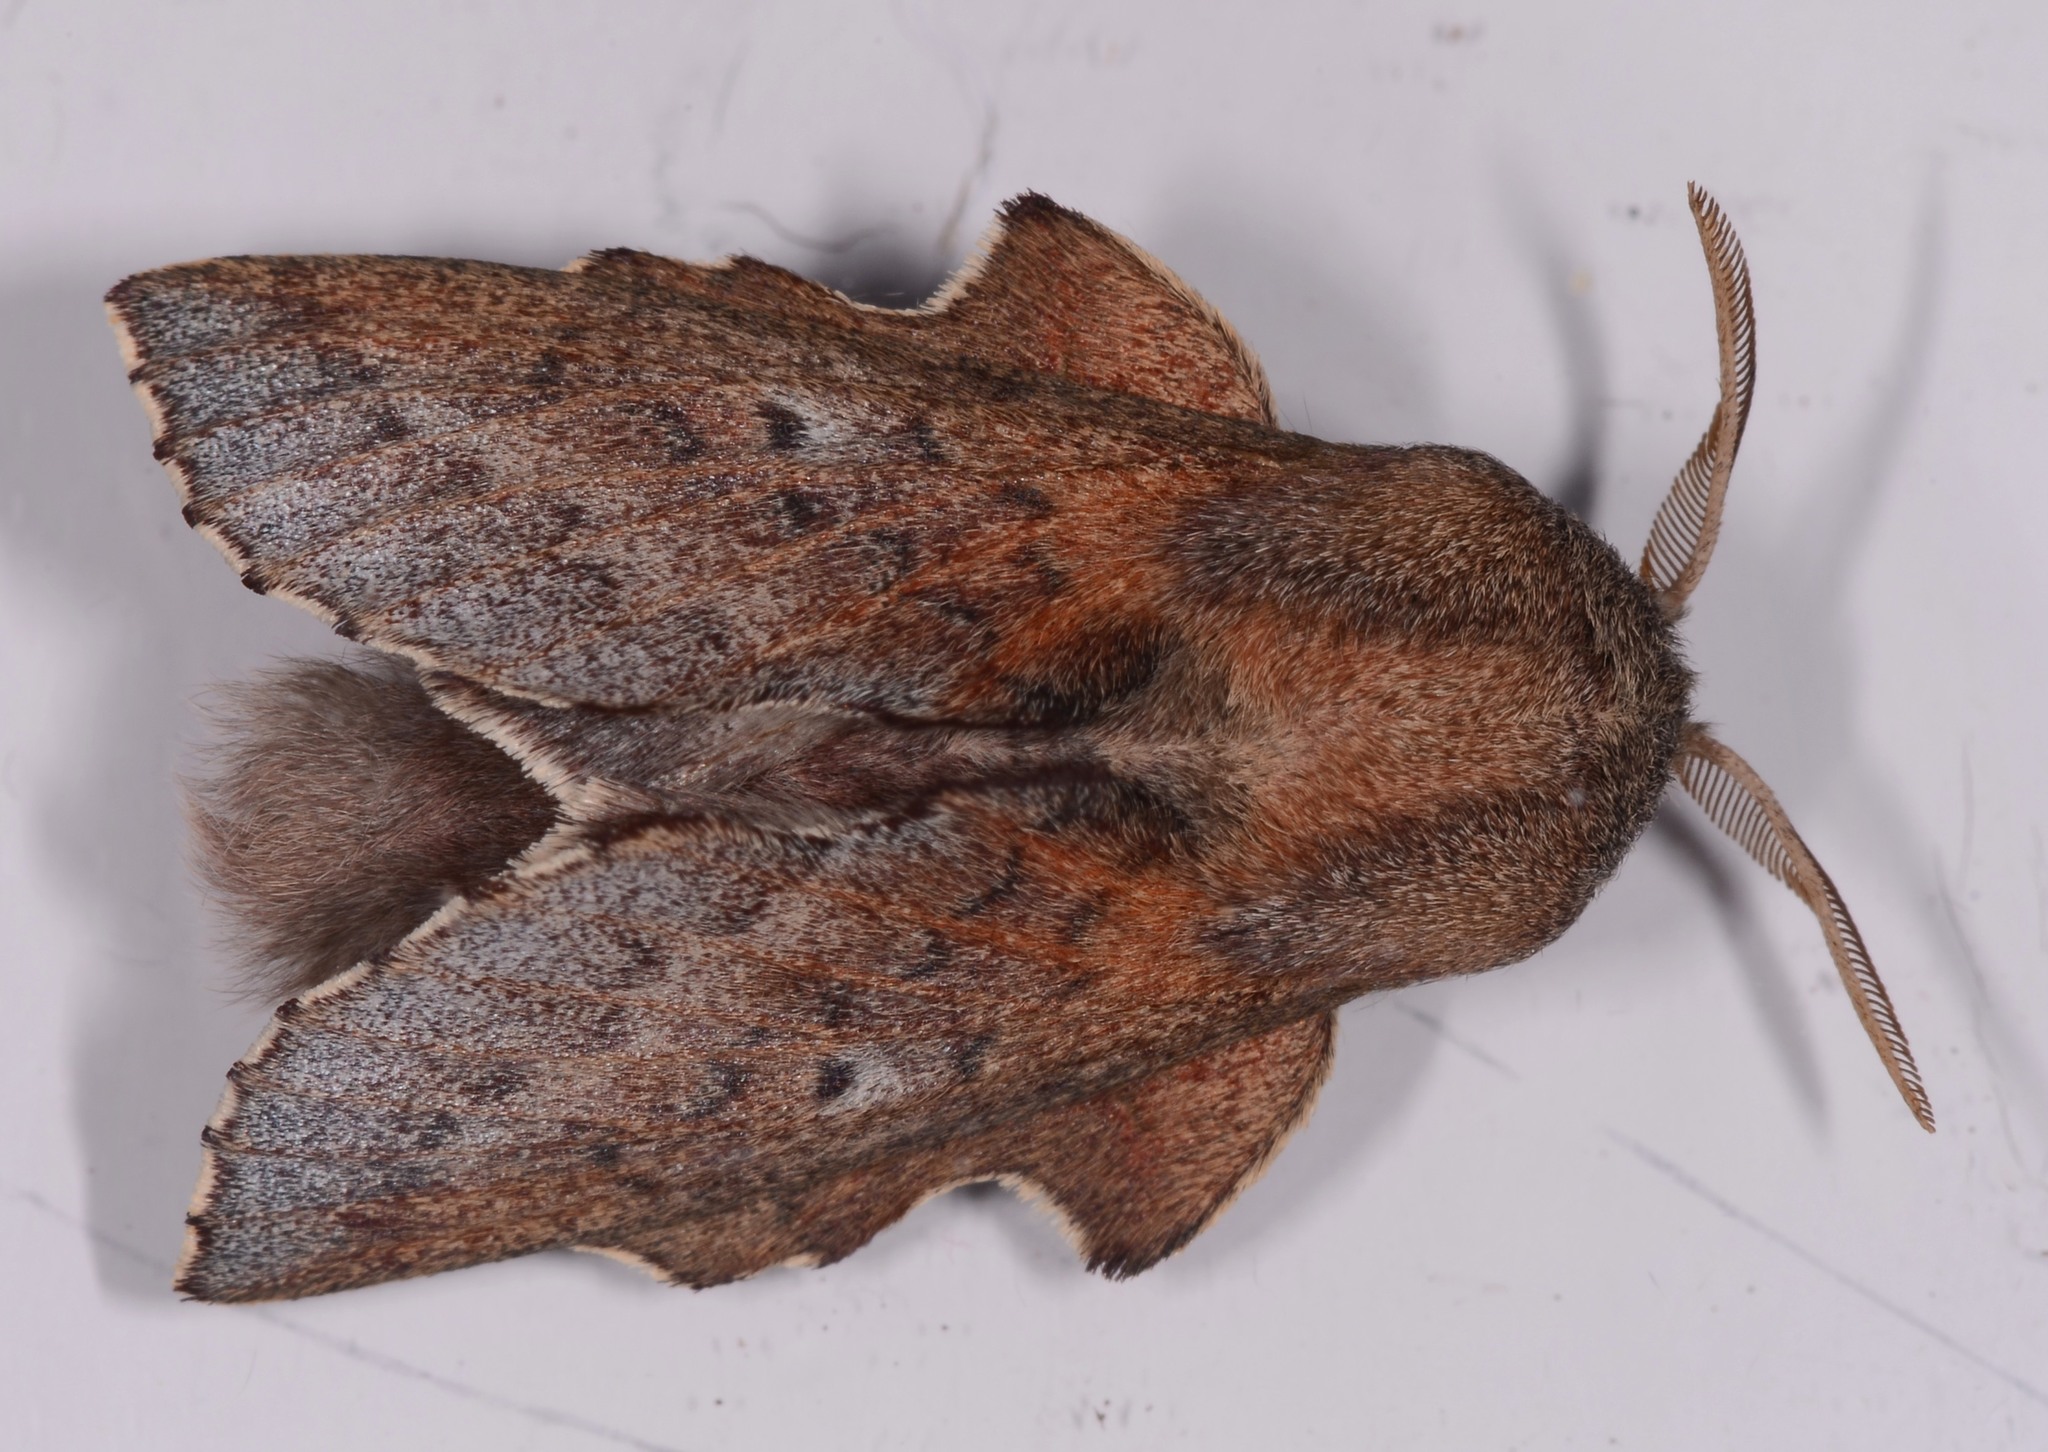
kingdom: Animalia
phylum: Arthropoda
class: Insecta
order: Lepidoptera
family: Lasiocampidae
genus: Phyllodesma
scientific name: Phyllodesma americana
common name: American lappet moth
